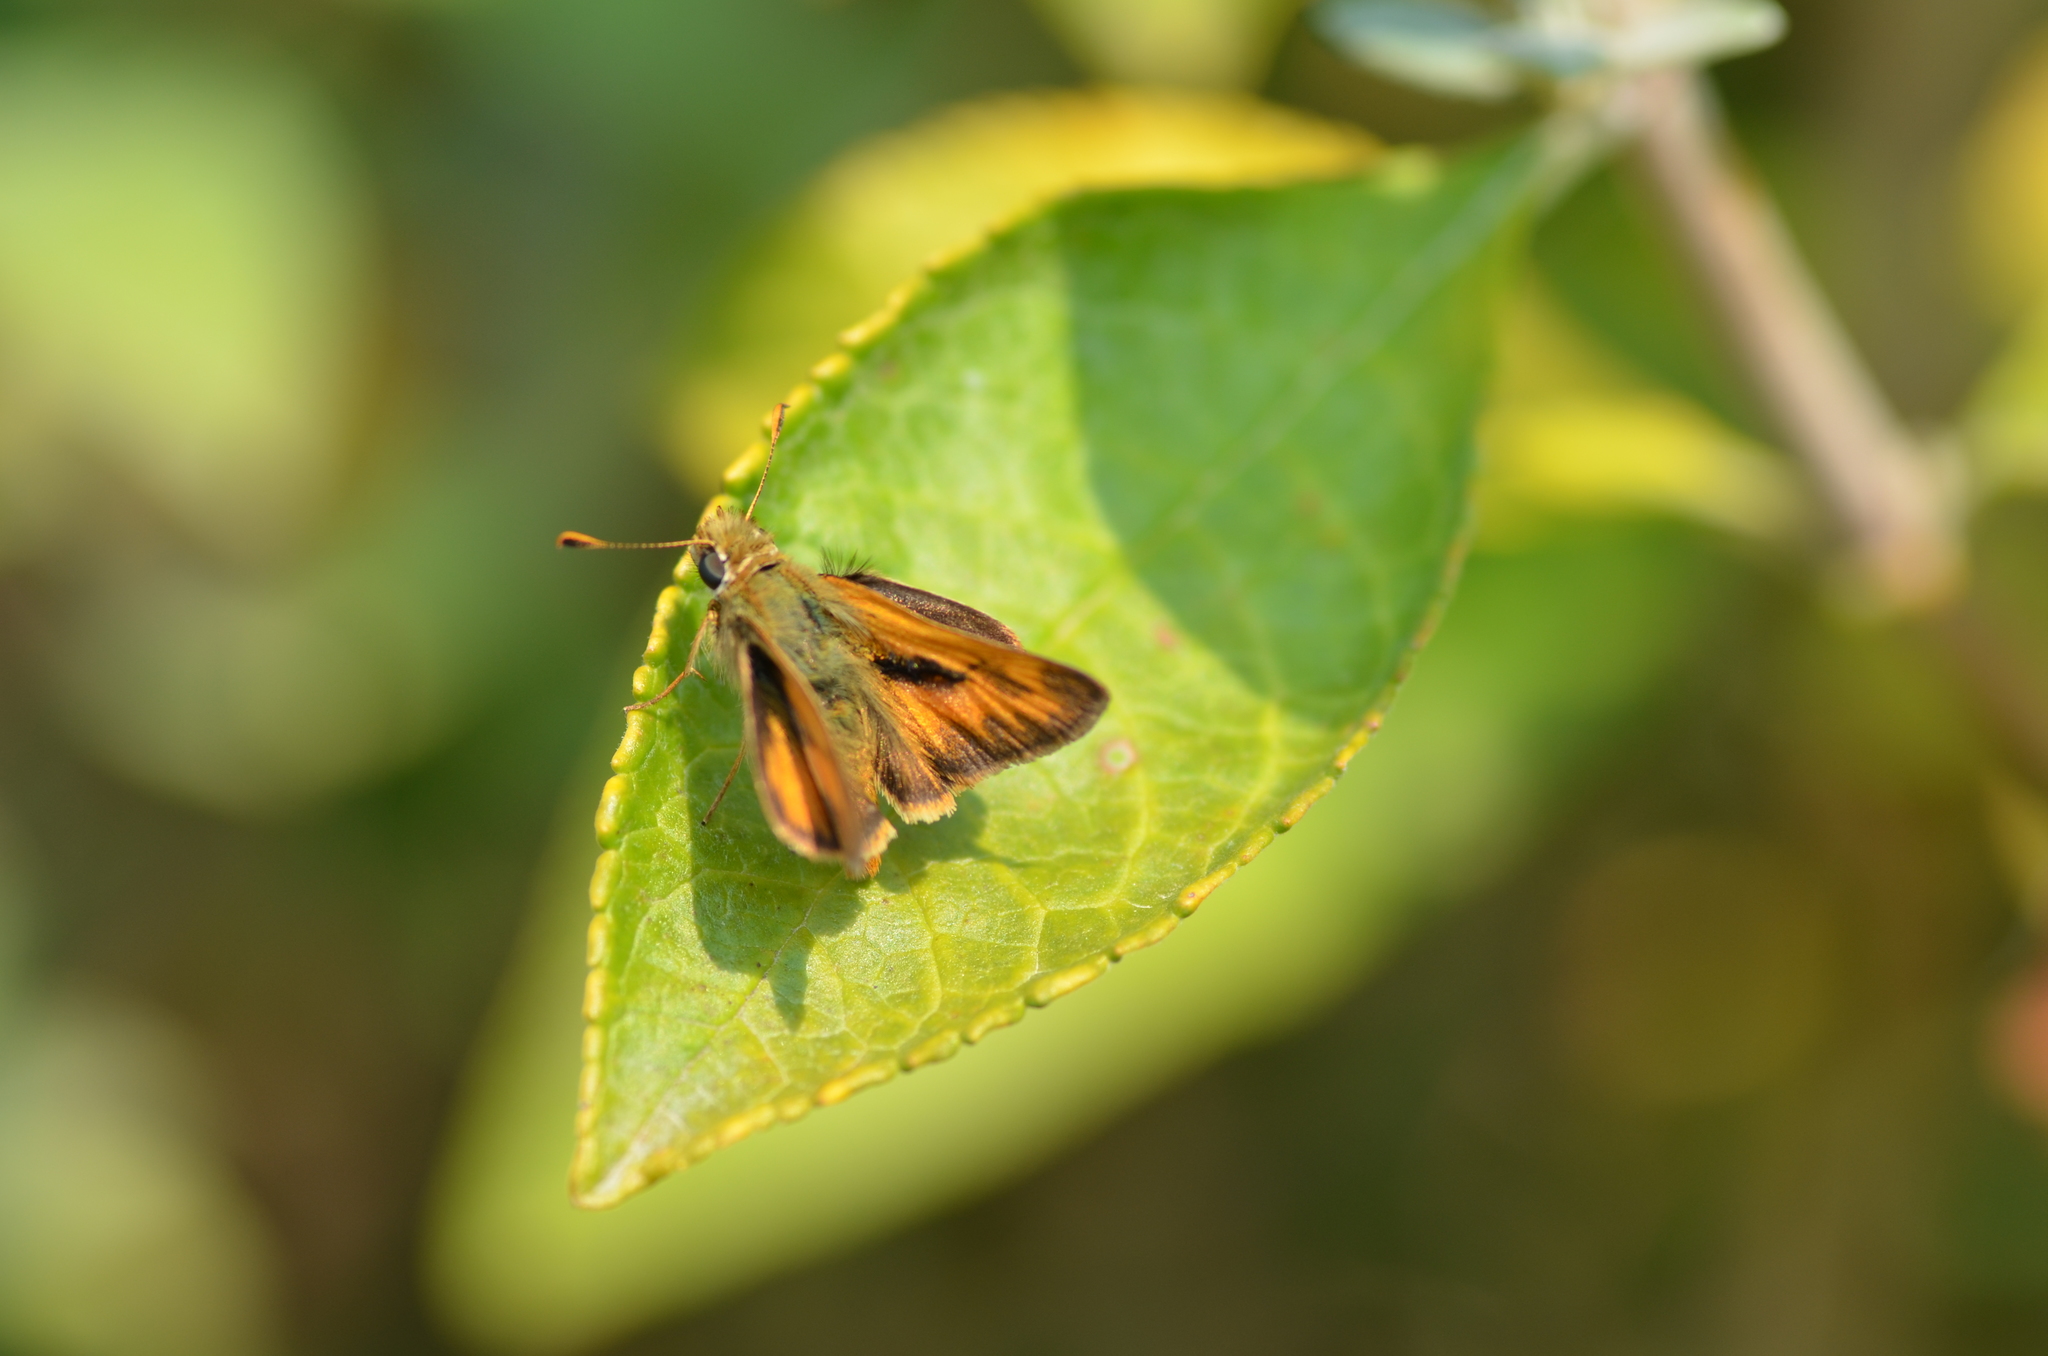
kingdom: Animalia
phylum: Arthropoda
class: Insecta
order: Lepidoptera
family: Hesperiidae
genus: Ochlodes
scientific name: Ochlodes sylvanoides
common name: Woodland skipper
